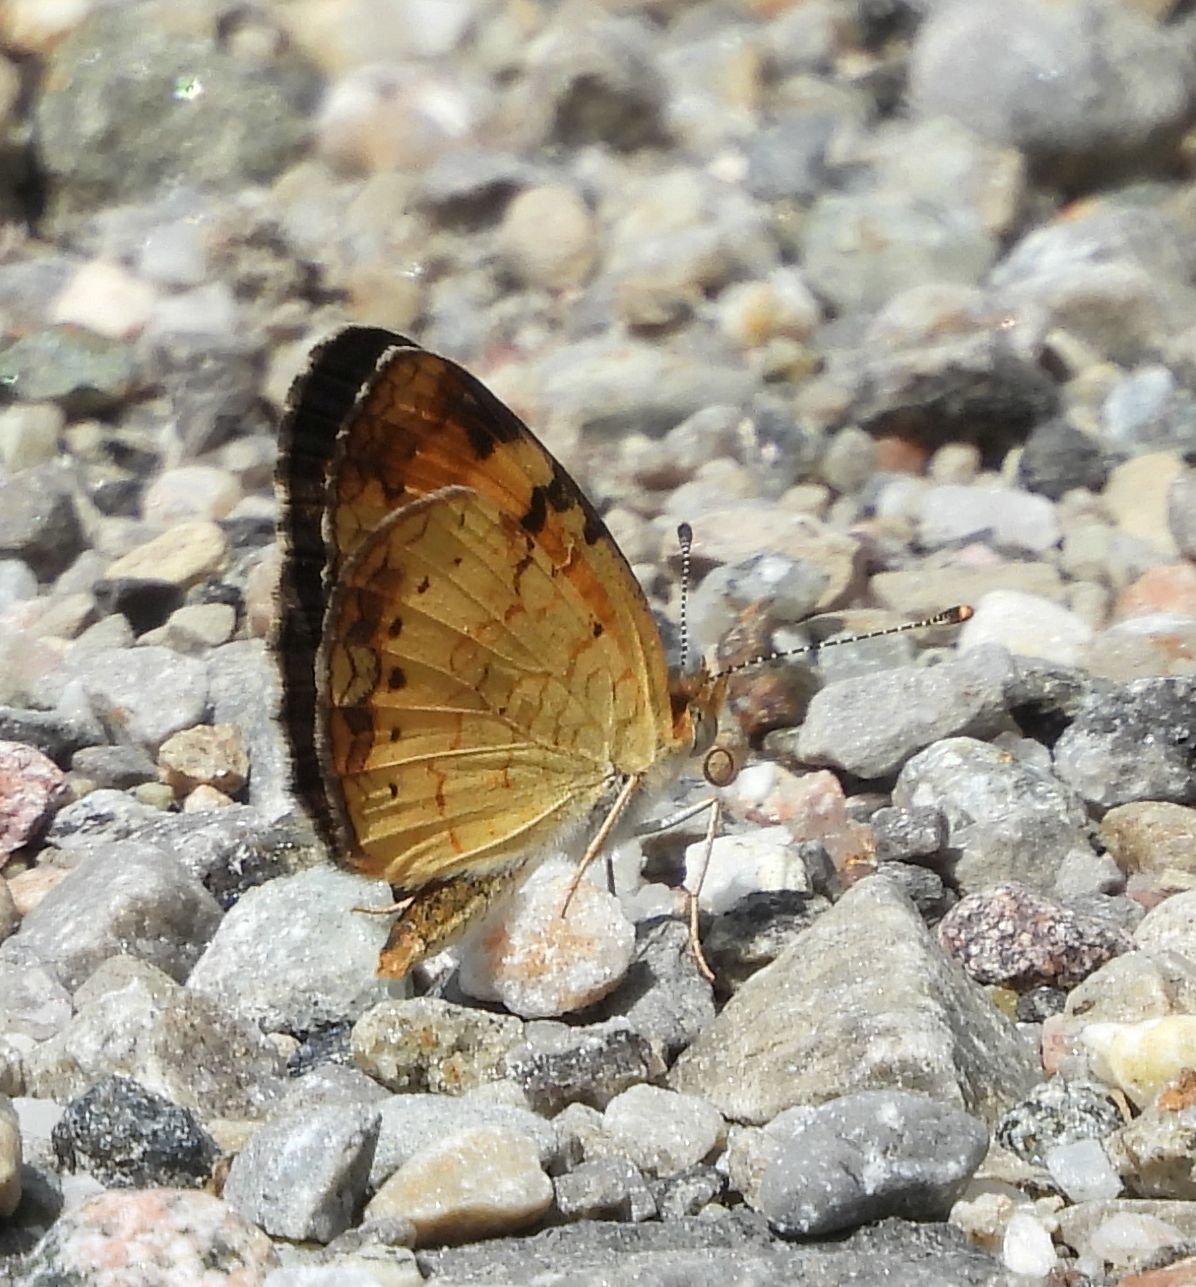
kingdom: Animalia
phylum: Arthropoda
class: Insecta
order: Lepidoptera
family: Nymphalidae
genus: Phyciodes
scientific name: Phyciodes tharos
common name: Pearl crescent
